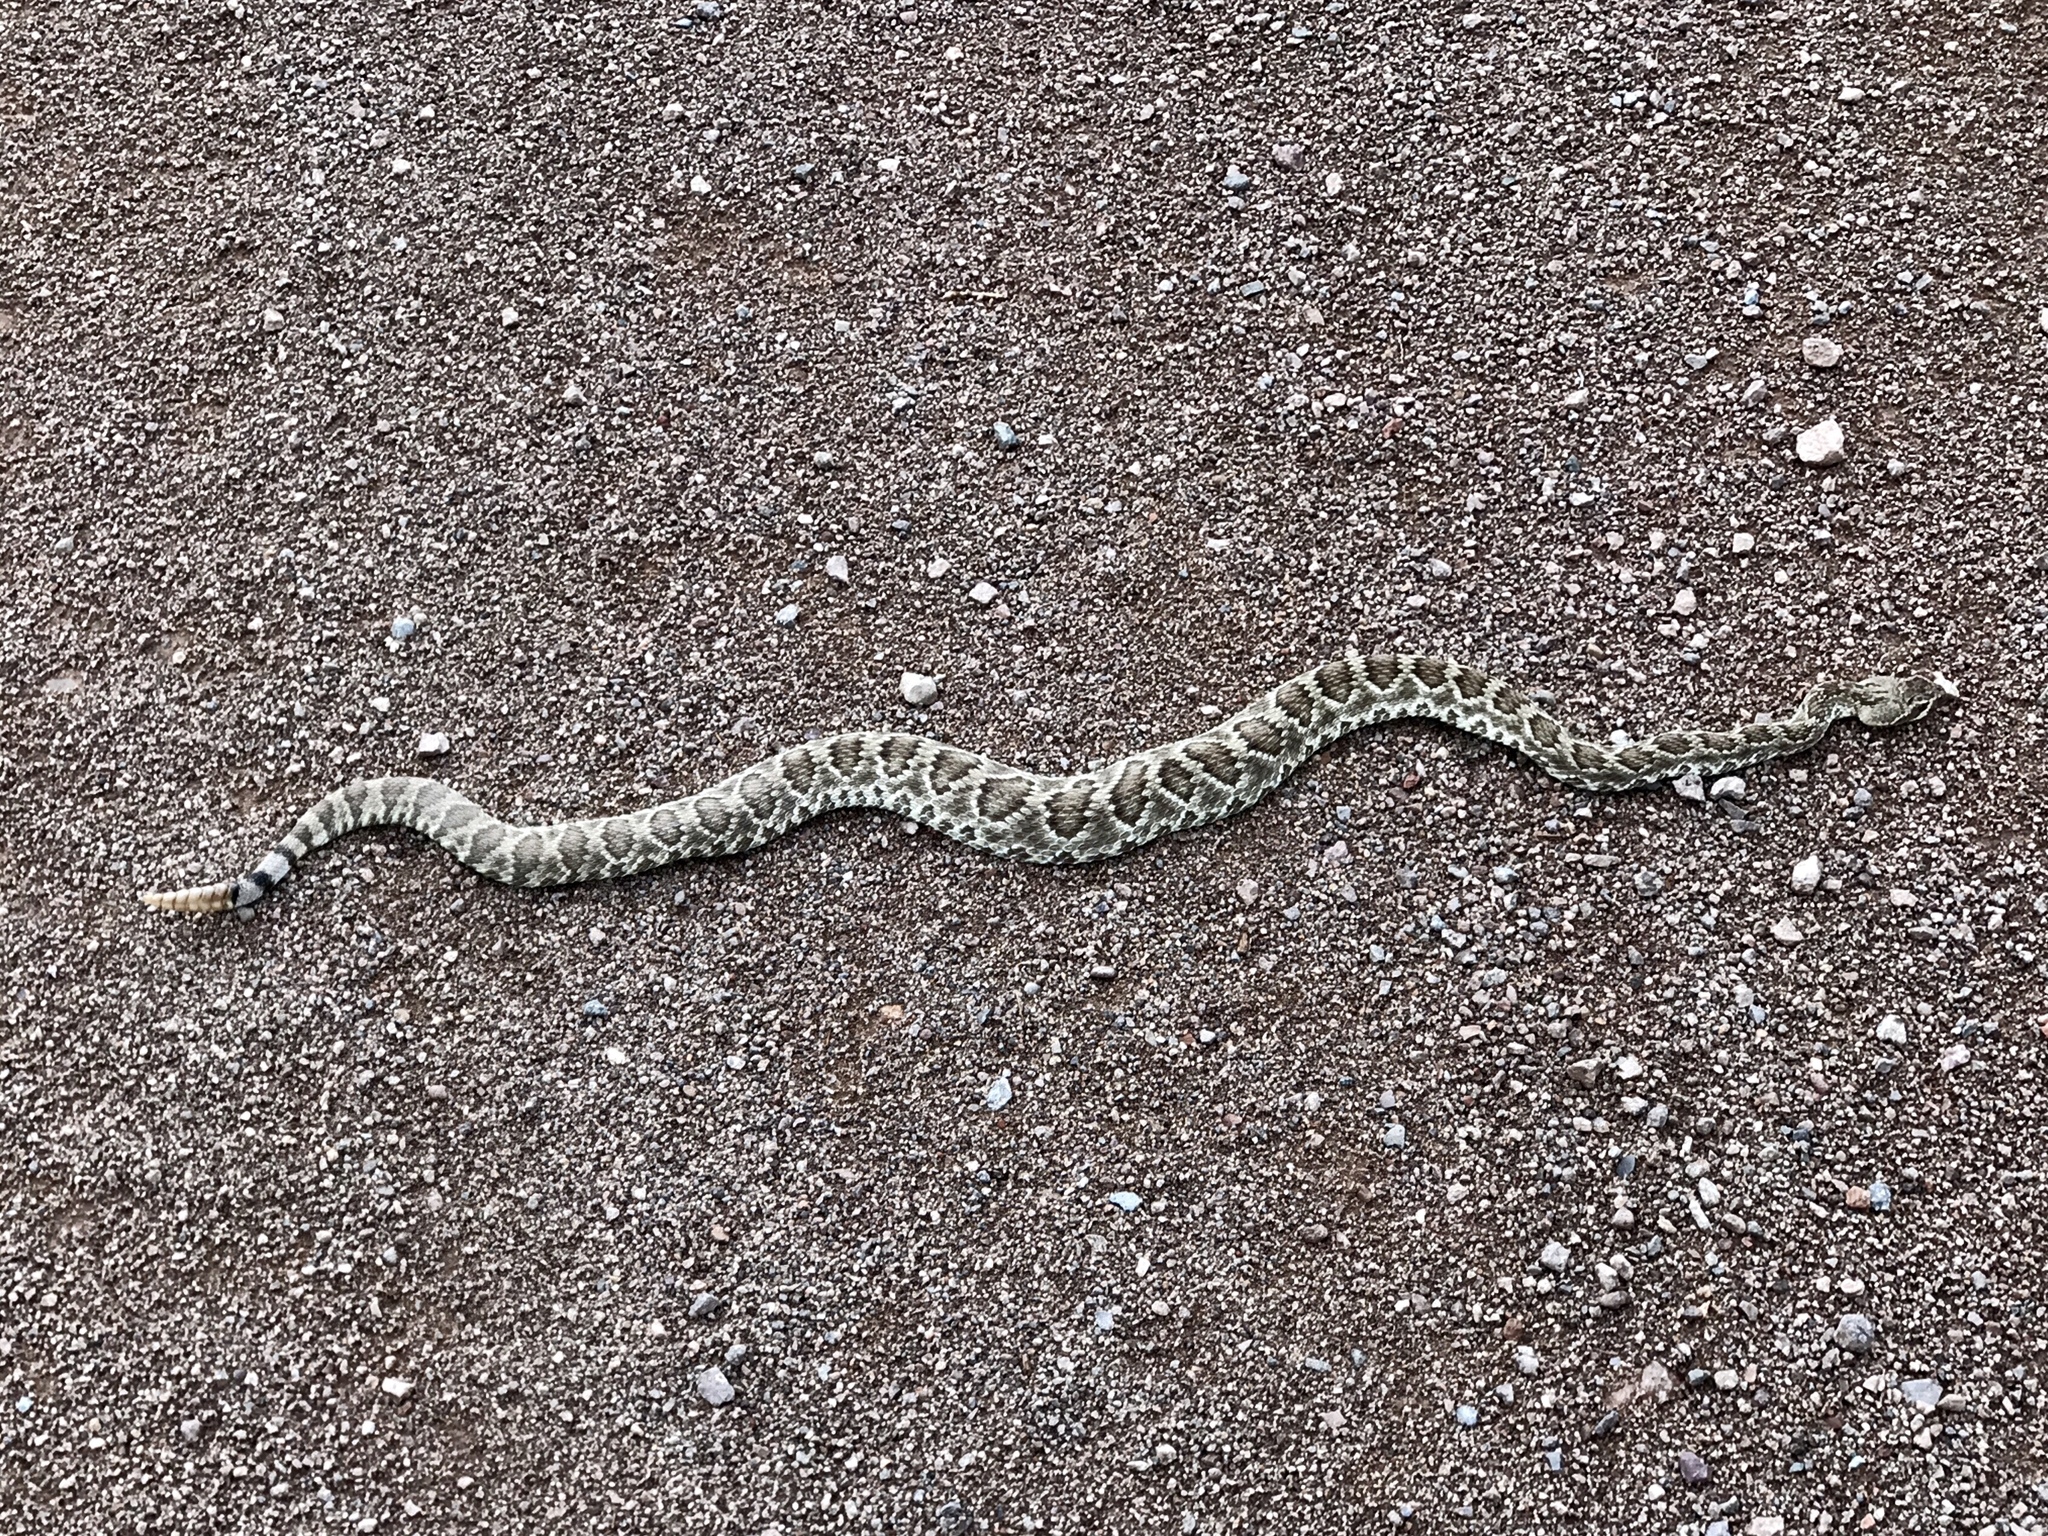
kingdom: Animalia
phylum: Chordata
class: Squamata
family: Viperidae
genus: Crotalus
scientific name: Crotalus scutulatus
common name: Scutulatus
